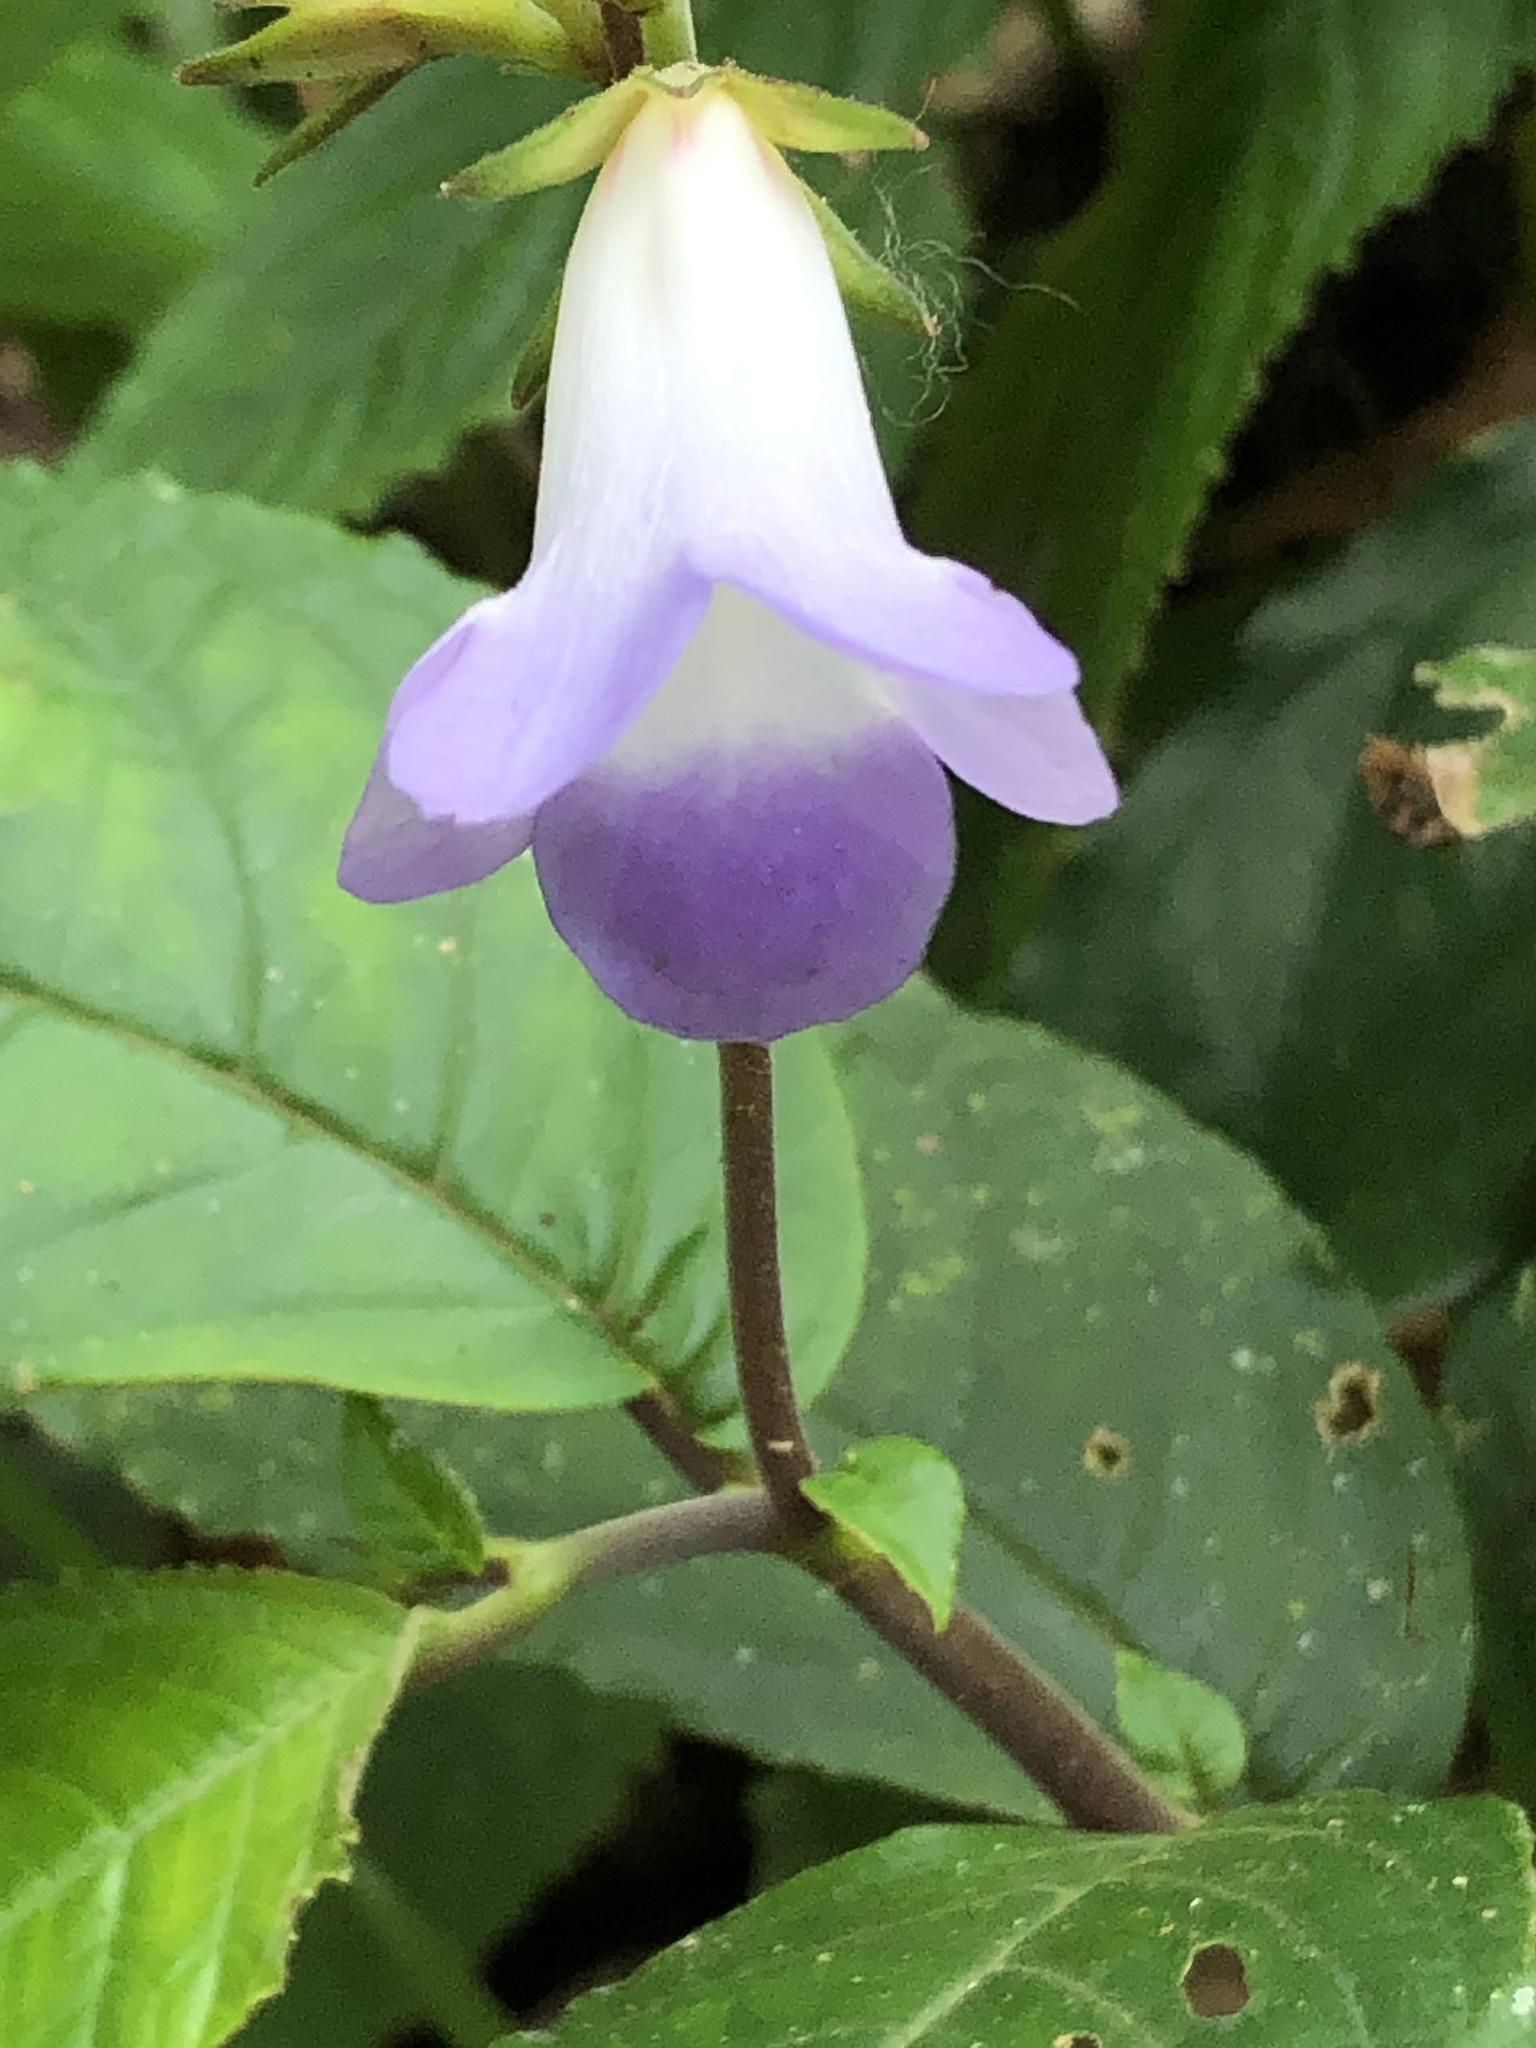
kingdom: Plantae
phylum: Tracheophyta
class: Magnoliopsida
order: Lamiales
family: Gesneriaceae
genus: Monopyle
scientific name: Monopyle subsessilis
